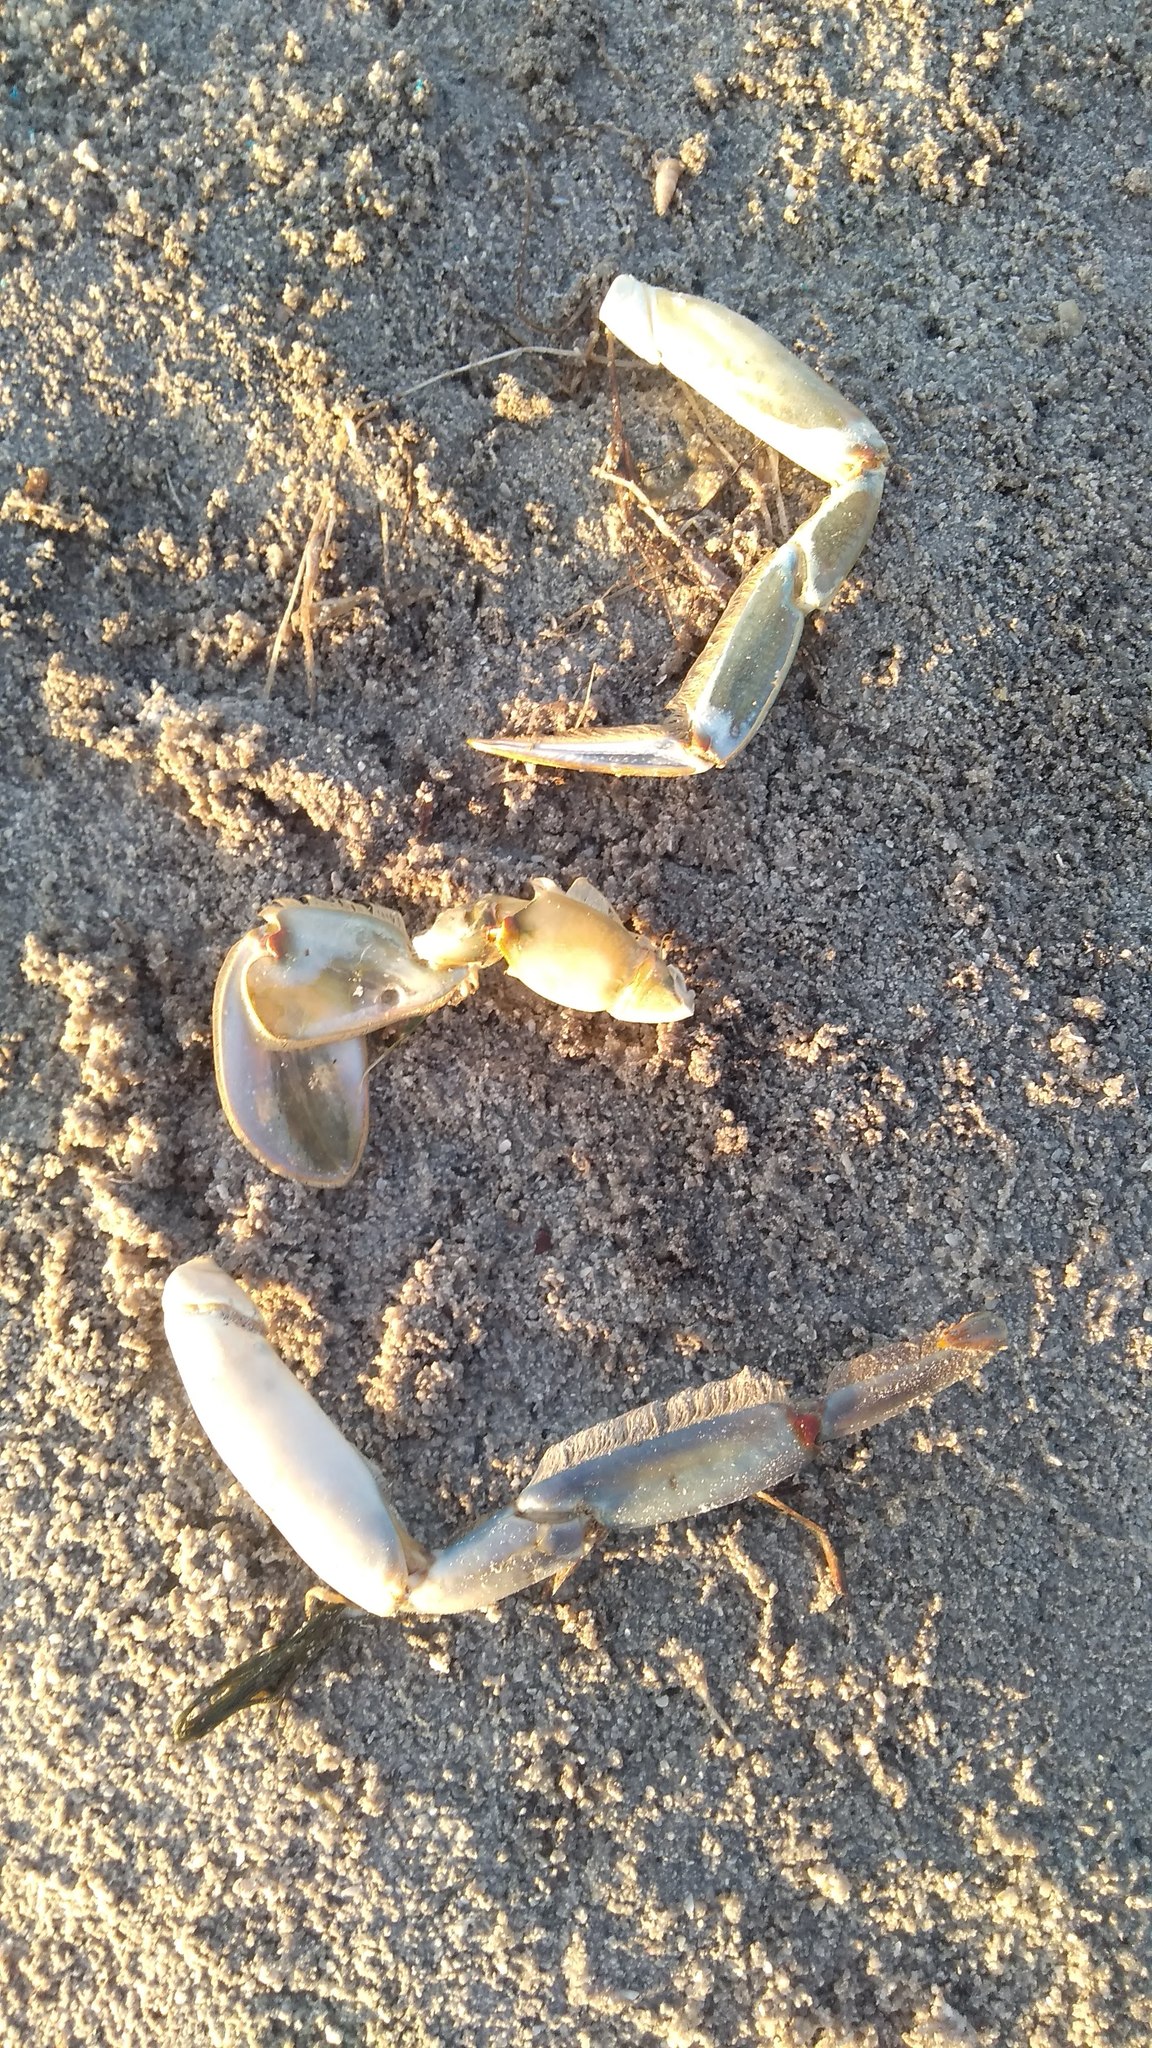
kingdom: Animalia
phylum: Arthropoda
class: Malacostraca
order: Decapoda
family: Portunidae
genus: Callinectes
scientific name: Callinectes sapidus
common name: Blue crab
